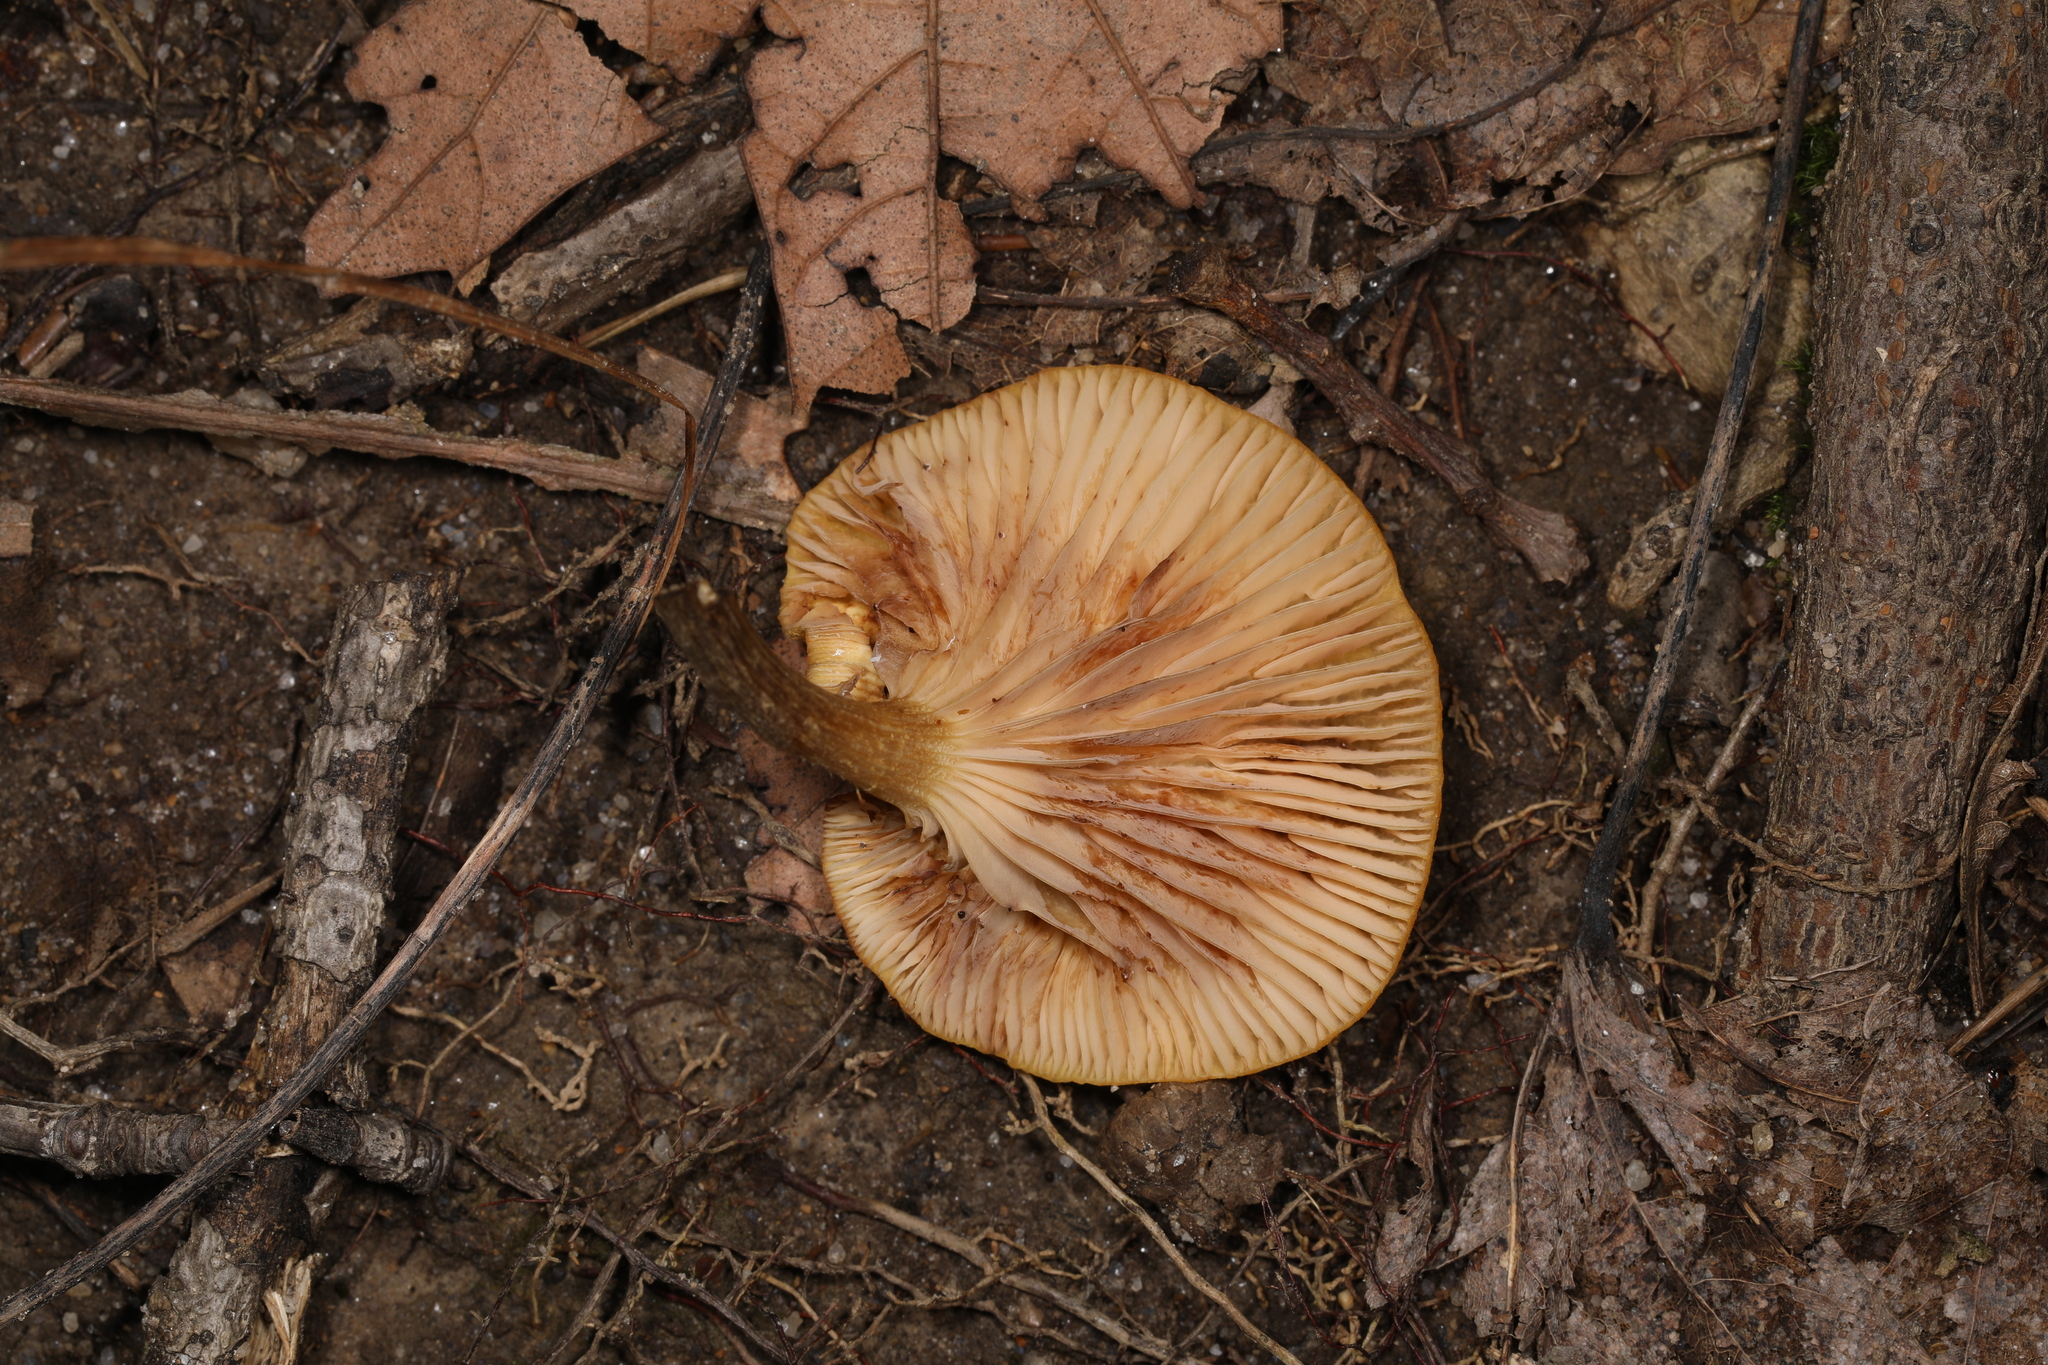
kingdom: Fungi
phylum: Basidiomycota
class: Agaricomycetes
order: Agaricales
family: Physalacriaceae
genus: Desarmillaria
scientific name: Desarmillaria caespitosa
